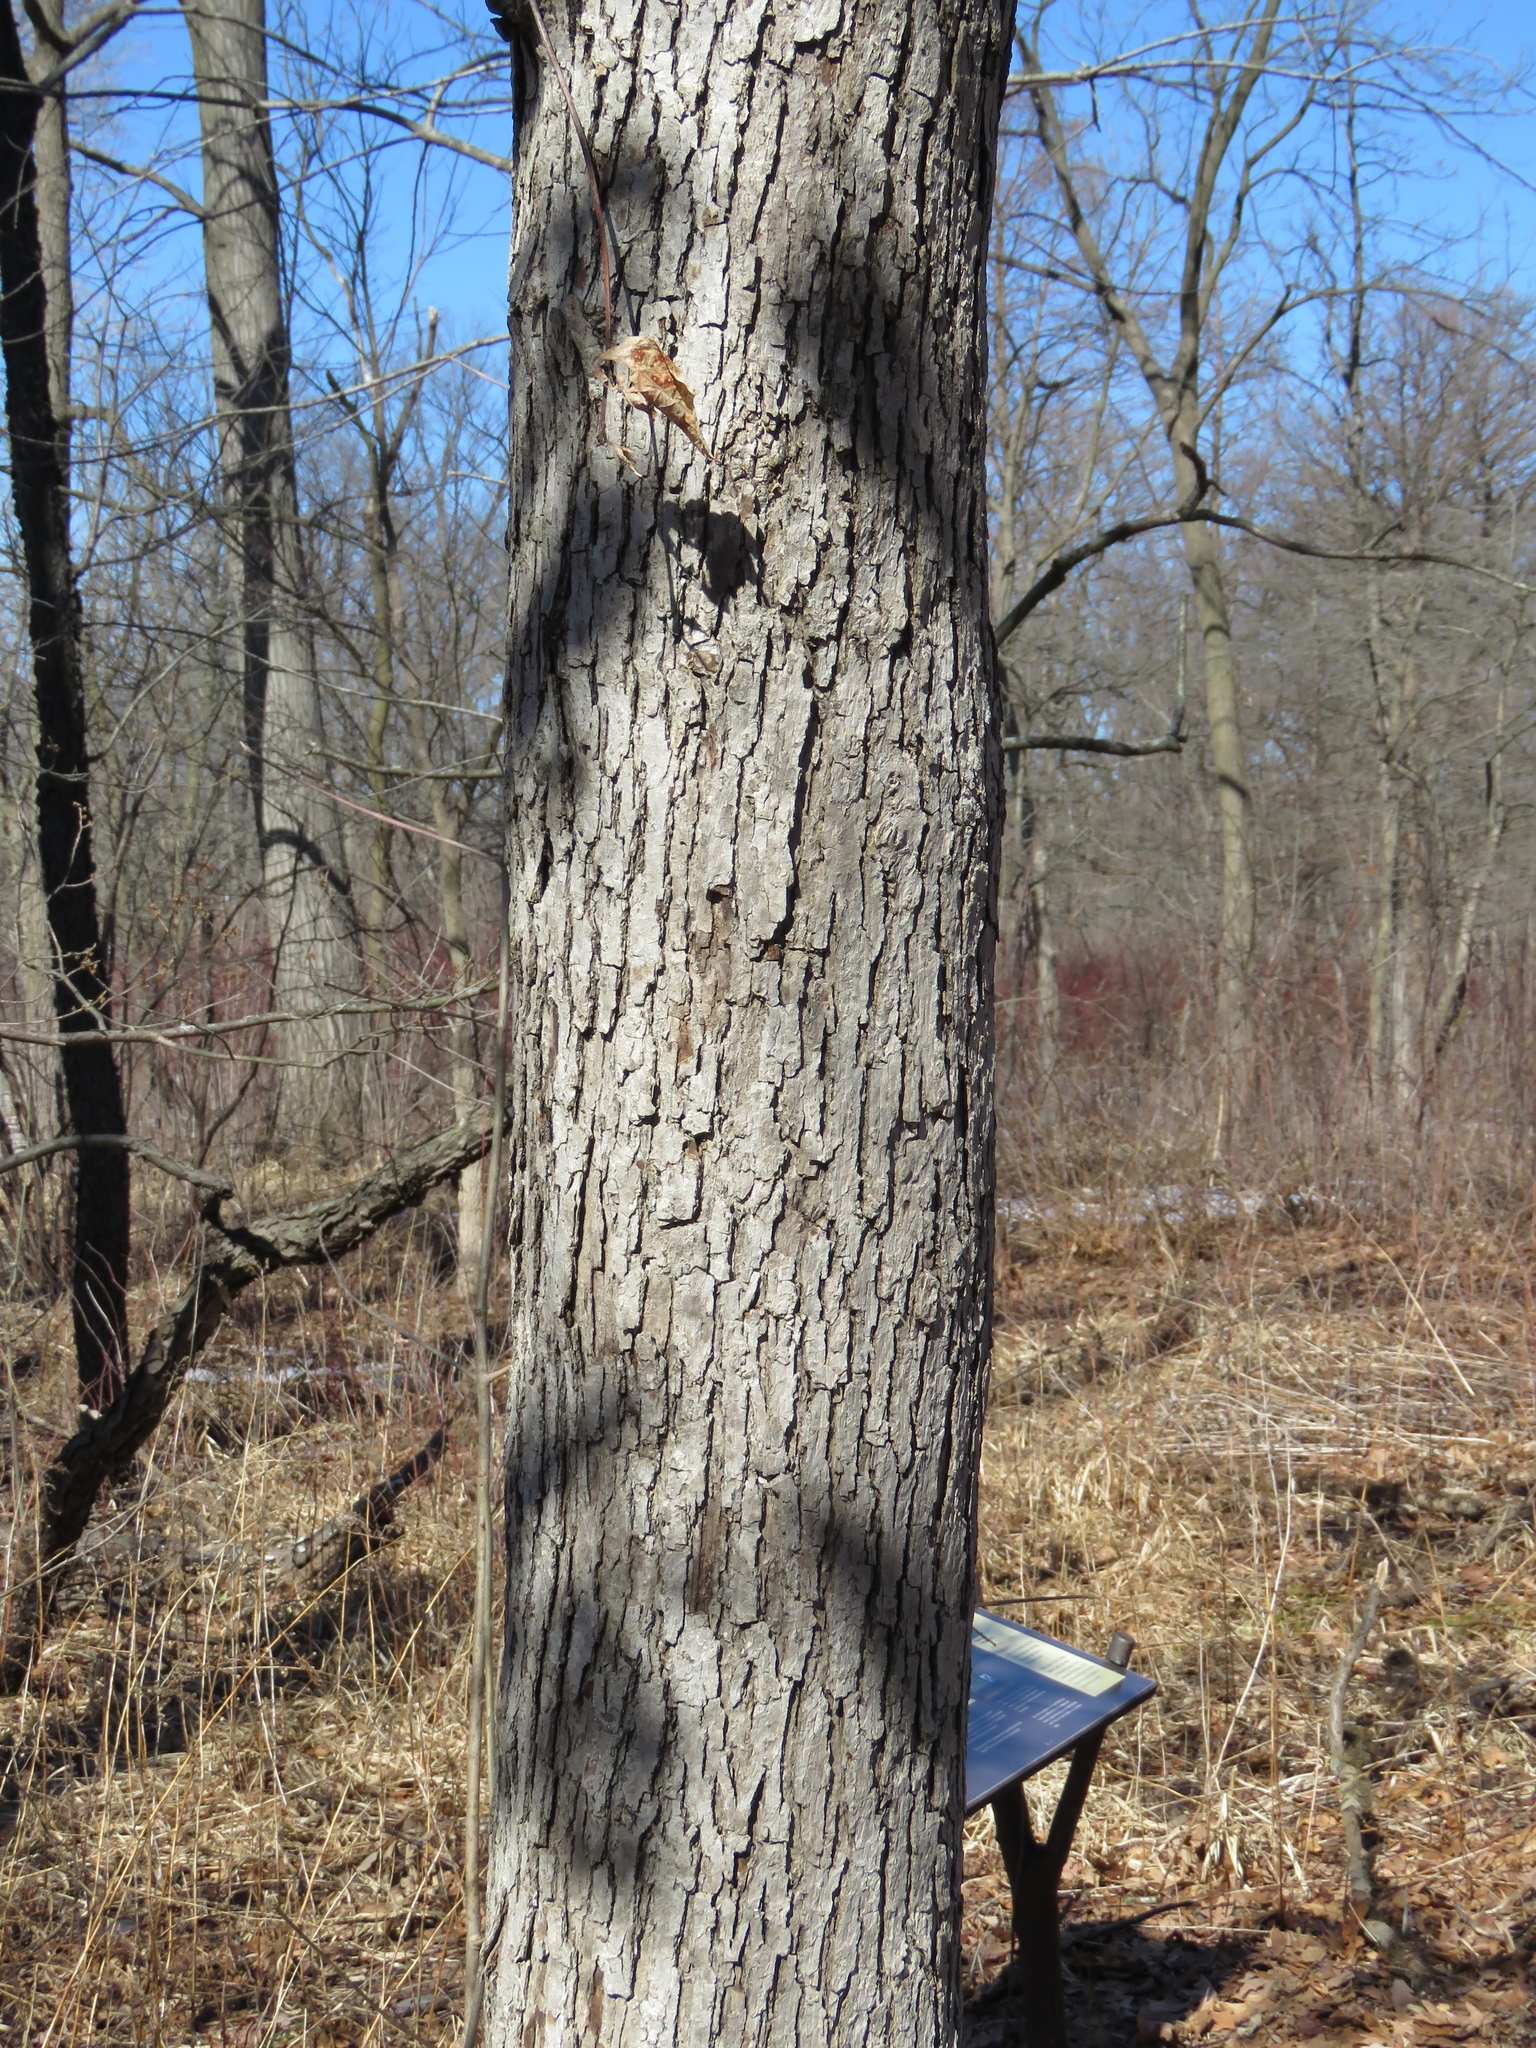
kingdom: Plantae
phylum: Tracheophyta
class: Magnoliopsida
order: Fagales
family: Fagaceae
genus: Quercus
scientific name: Quercus alba
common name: White oak
